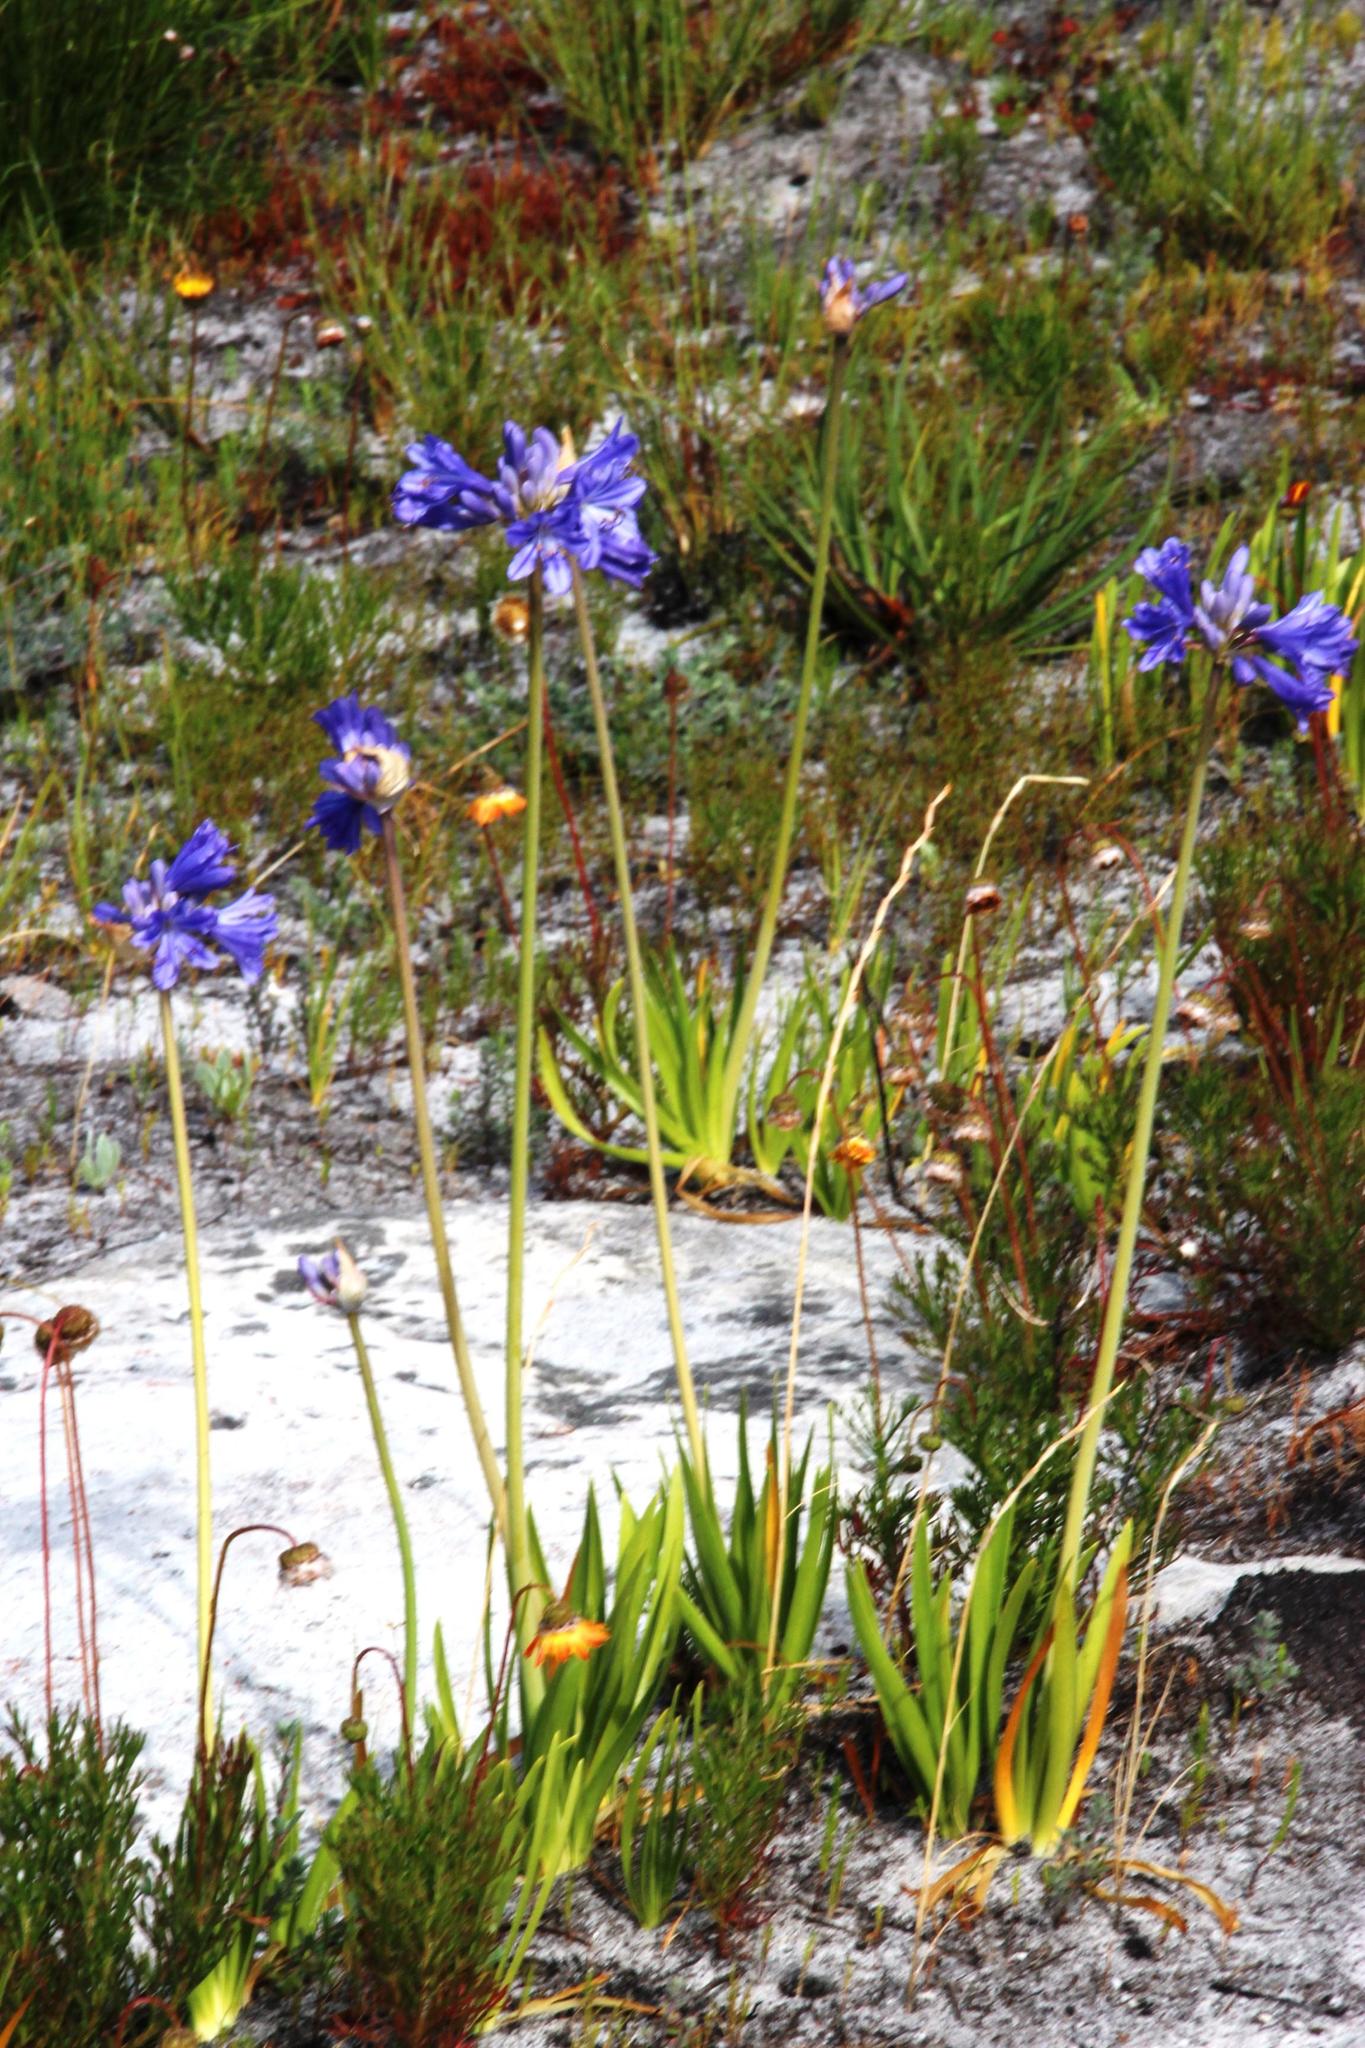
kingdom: Plantae
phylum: Tracheophyta
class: Liliopsida
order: Asparagales
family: Amaryllidaceae
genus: Agapanthus
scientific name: Agapanthus africanus
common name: Lily-of-the-nile
